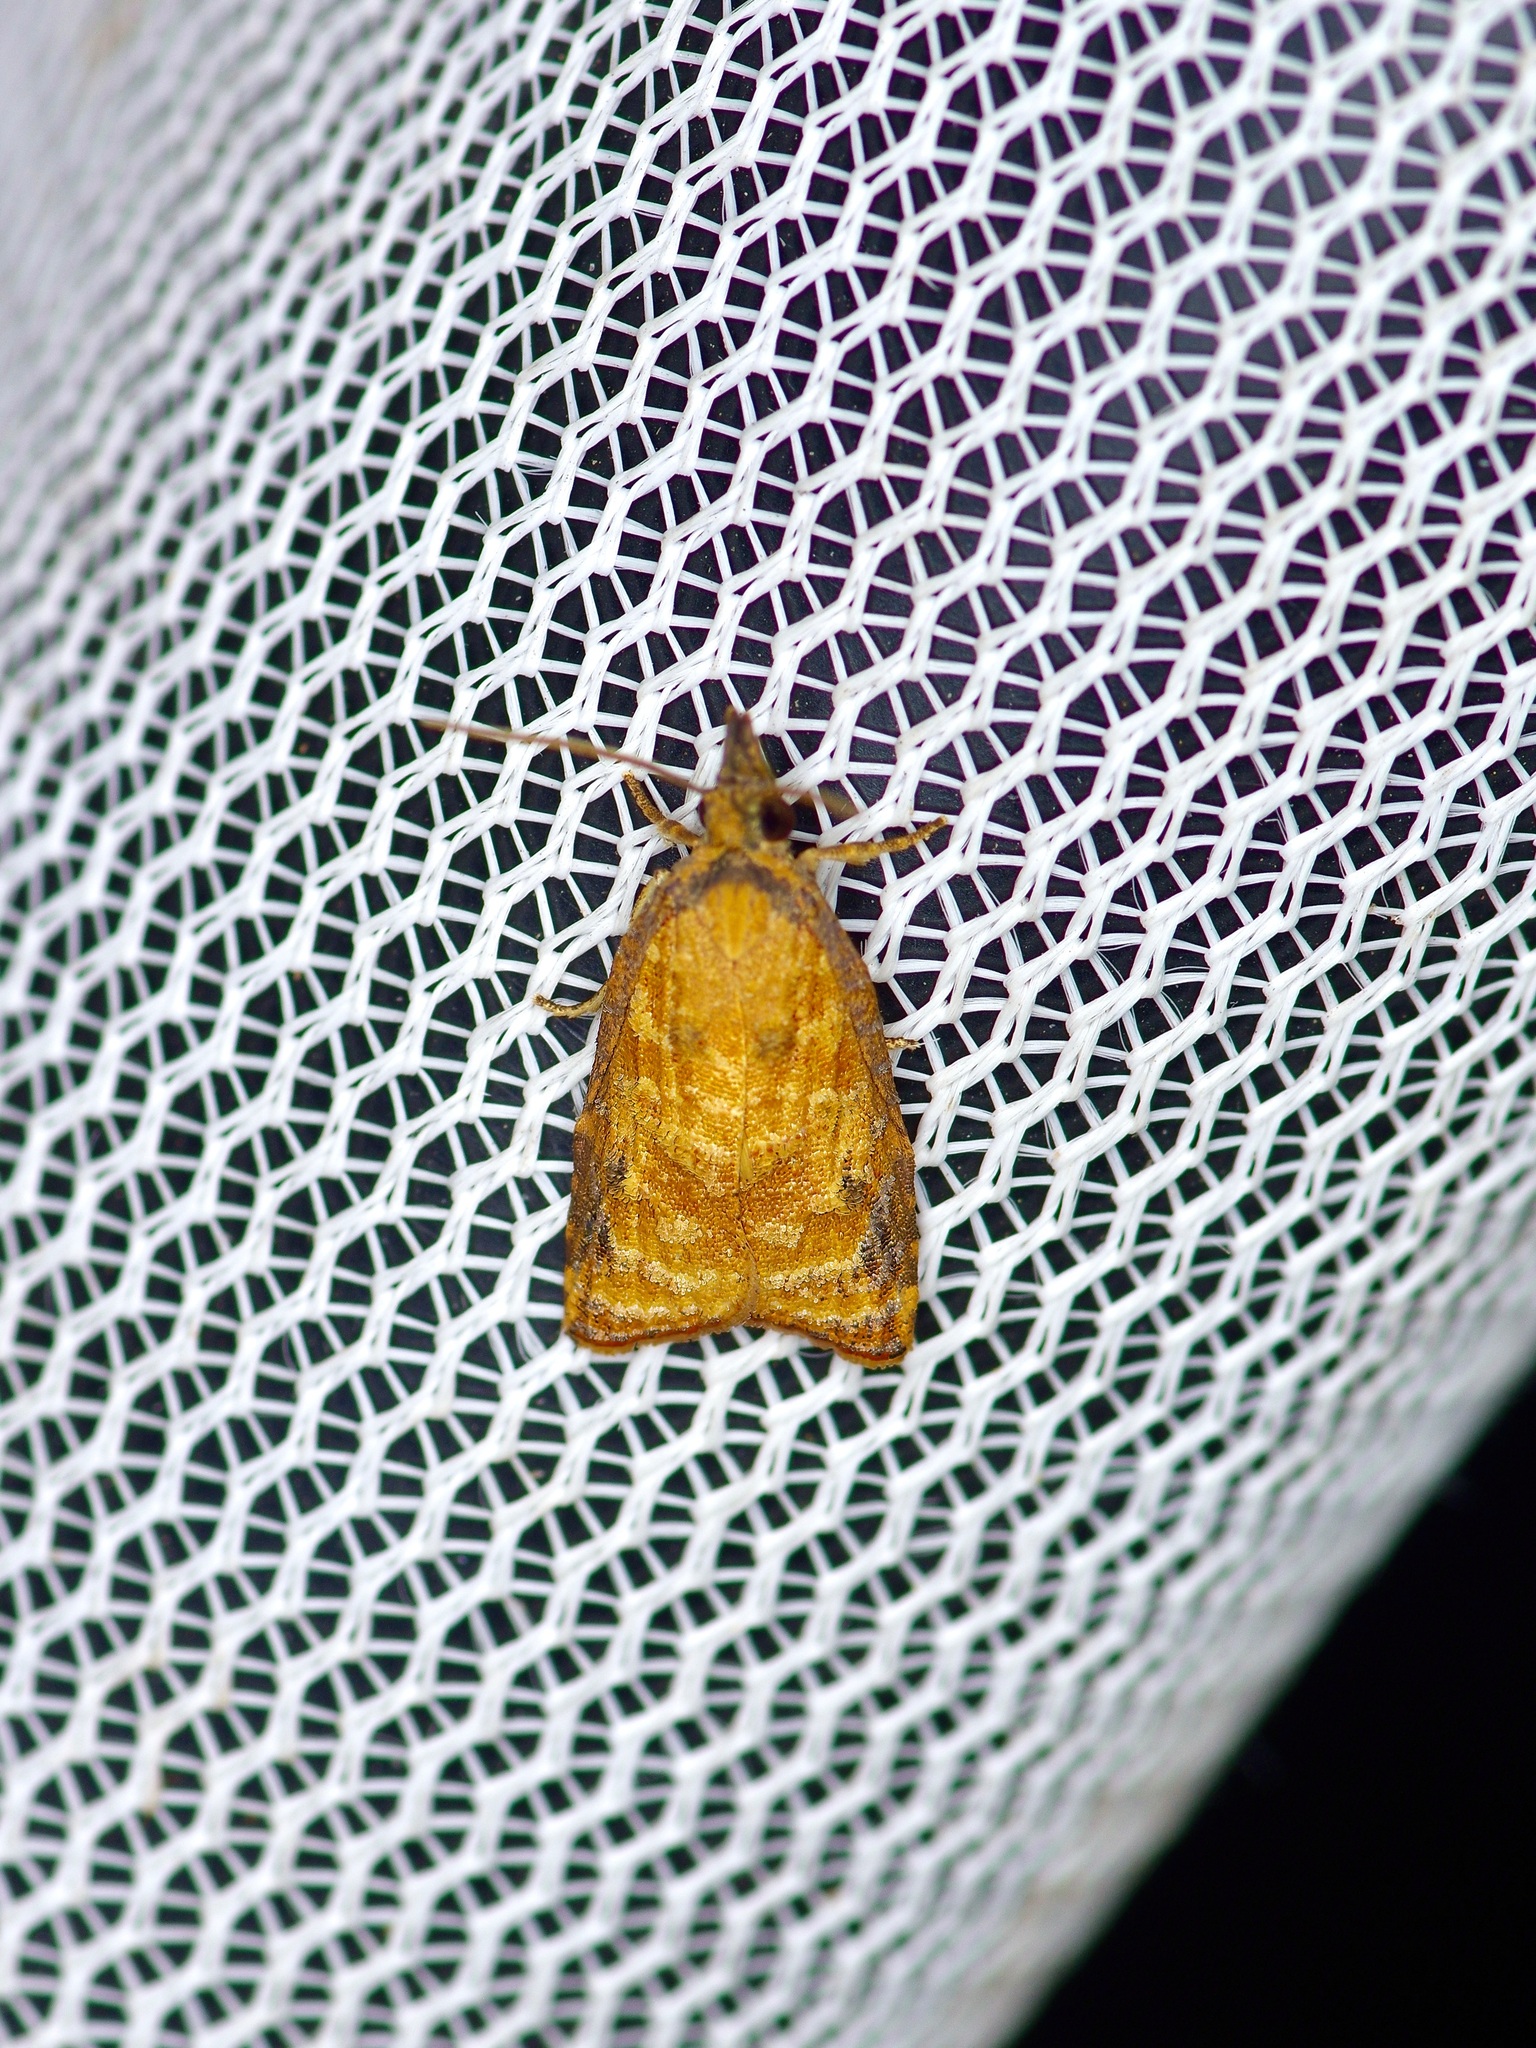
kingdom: Animalia
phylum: Arthropoda
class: Insecta
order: Lepidoptera
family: Tortricidae
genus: Platynota
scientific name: Platynota rostrana
